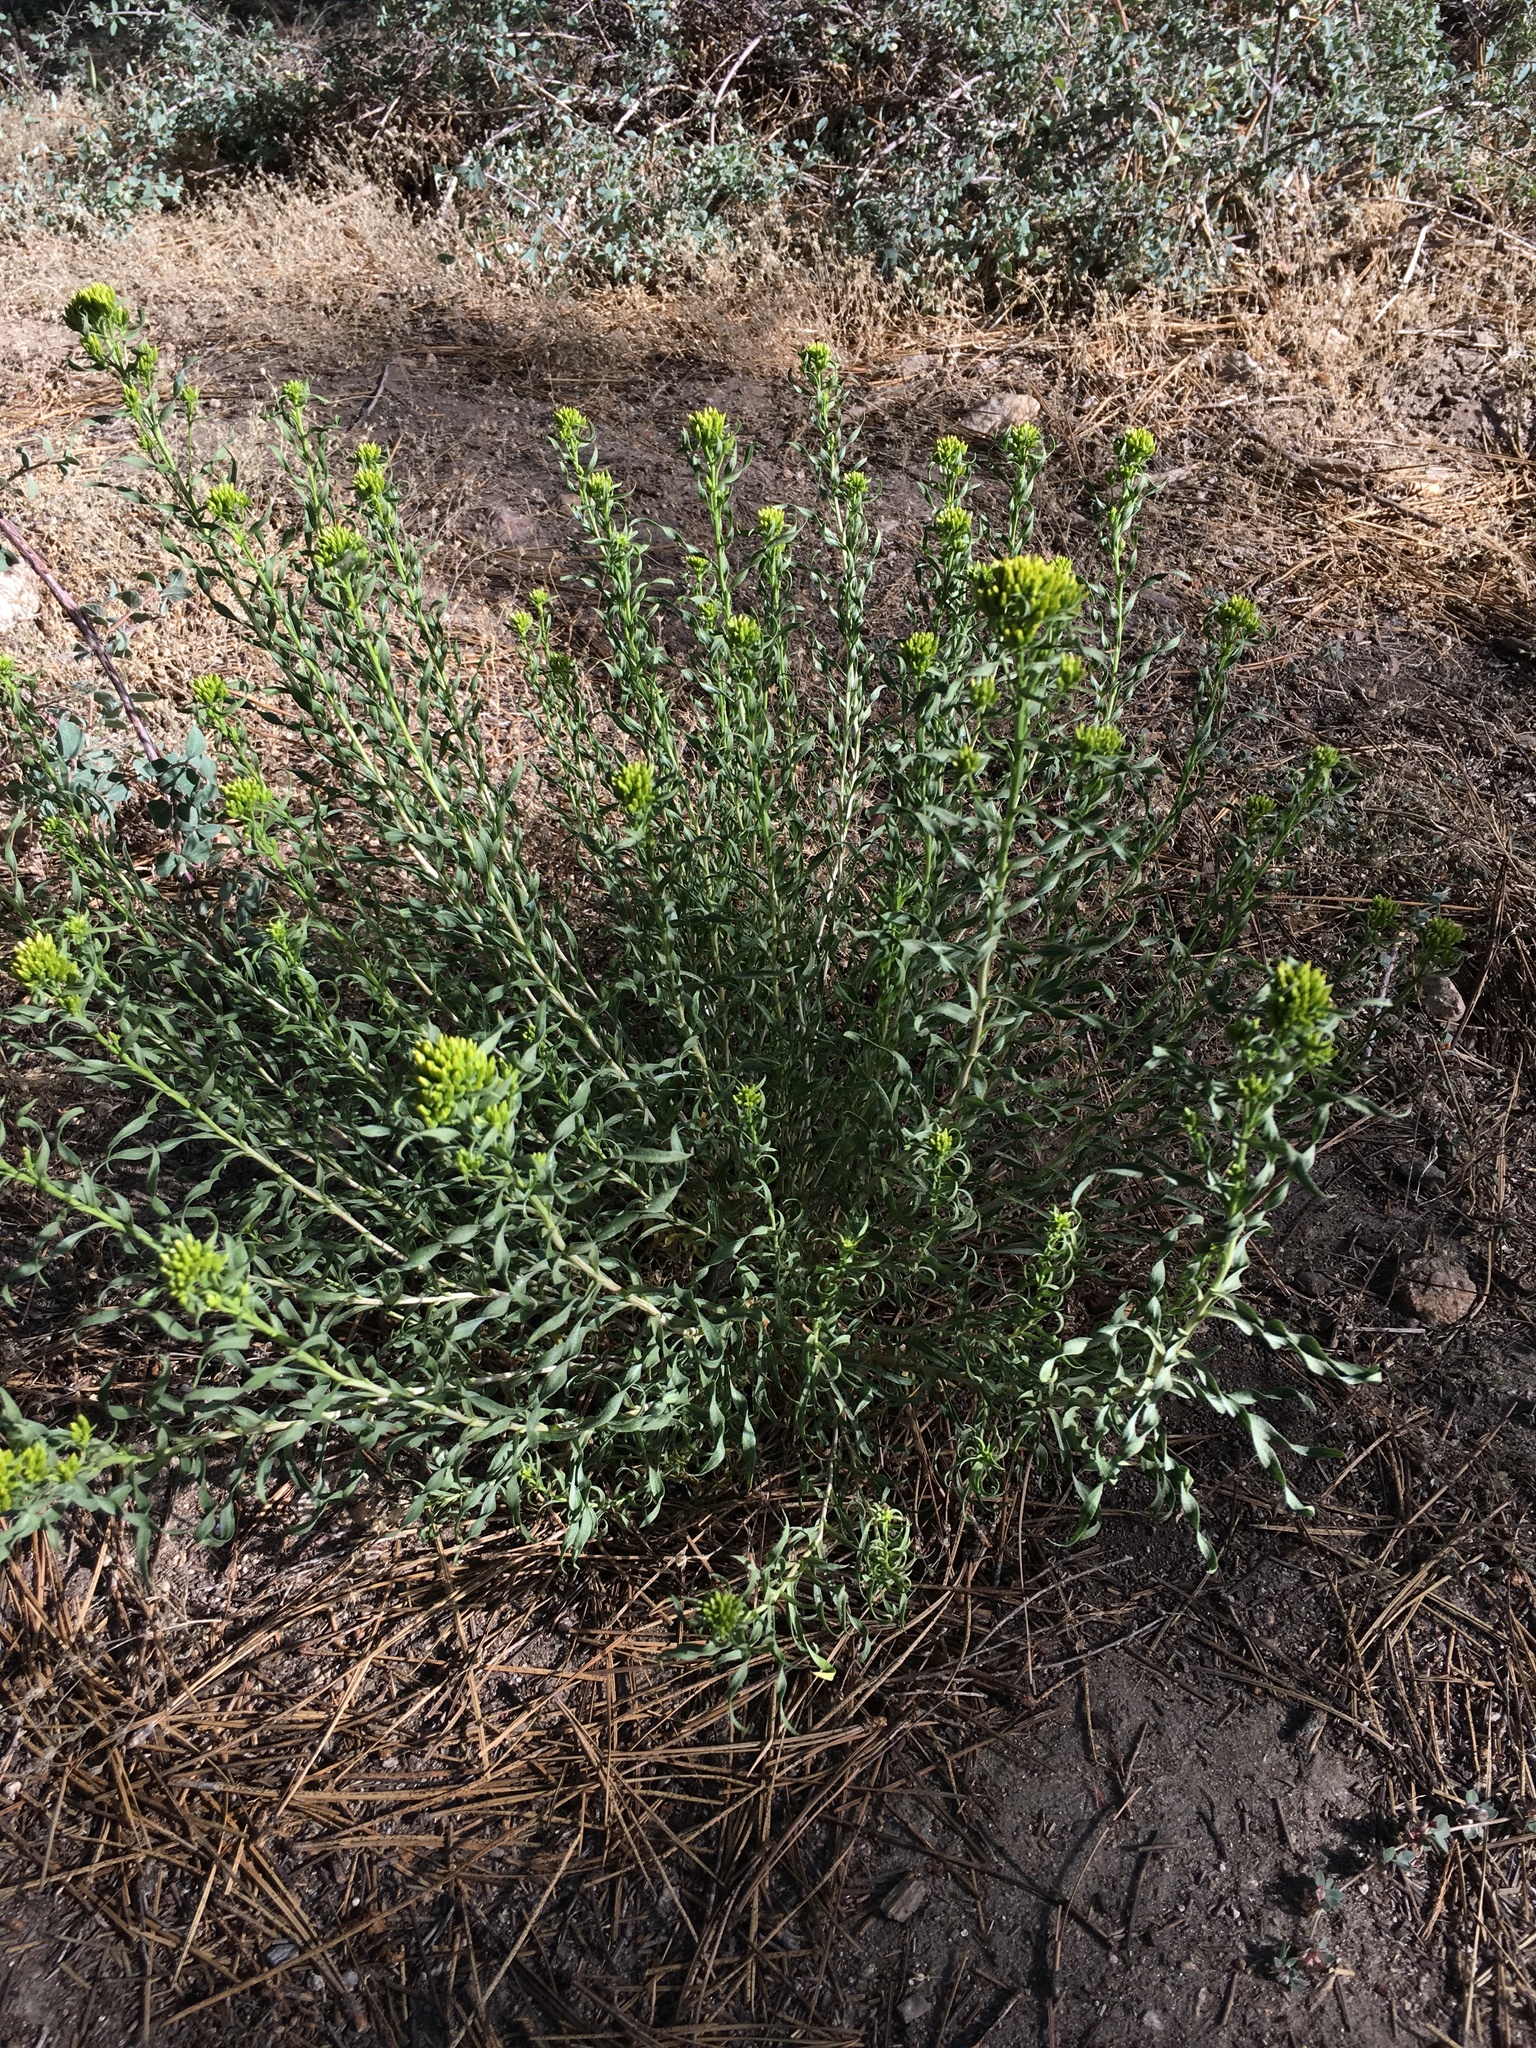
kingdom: Plantae
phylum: Tracheophyta
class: Magnoliopsida
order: Asterales
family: Asteraceae
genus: Chrysothamnus
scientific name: Chrysothamnus viscidiflorus
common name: Yellow rabbitbrush
